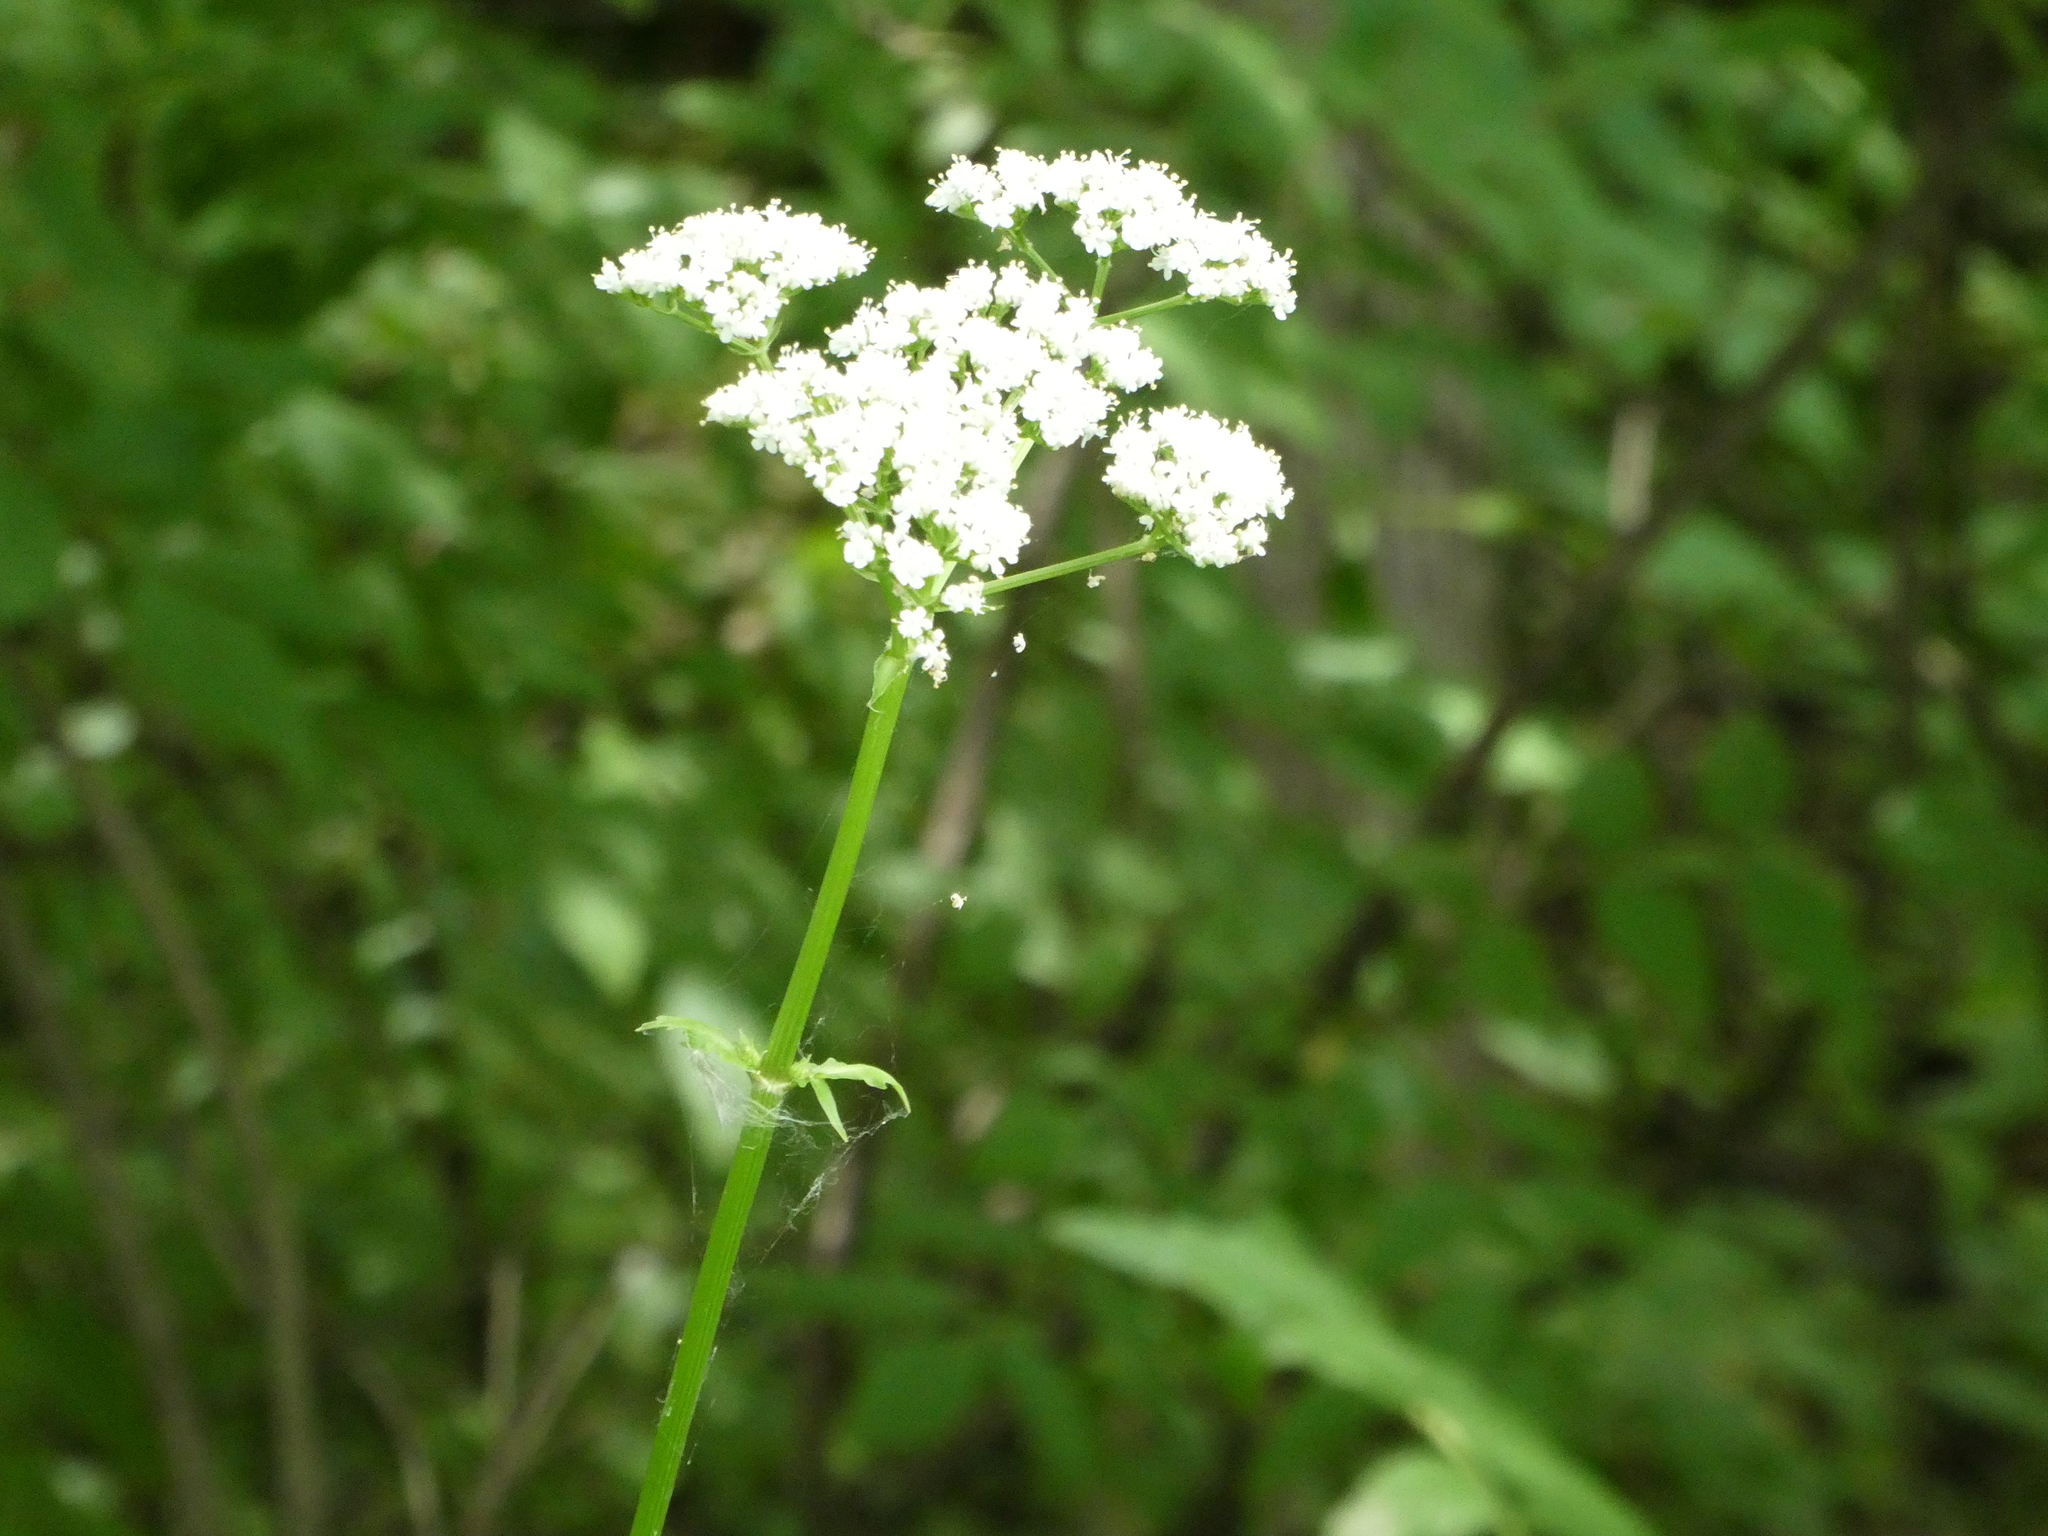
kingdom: Plantae
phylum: Tracheophyta
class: Magnoliopsida
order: Dipsacales
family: Caprifoliaceae
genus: Valeriana
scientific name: Valeriana officinalis
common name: Common valerian
